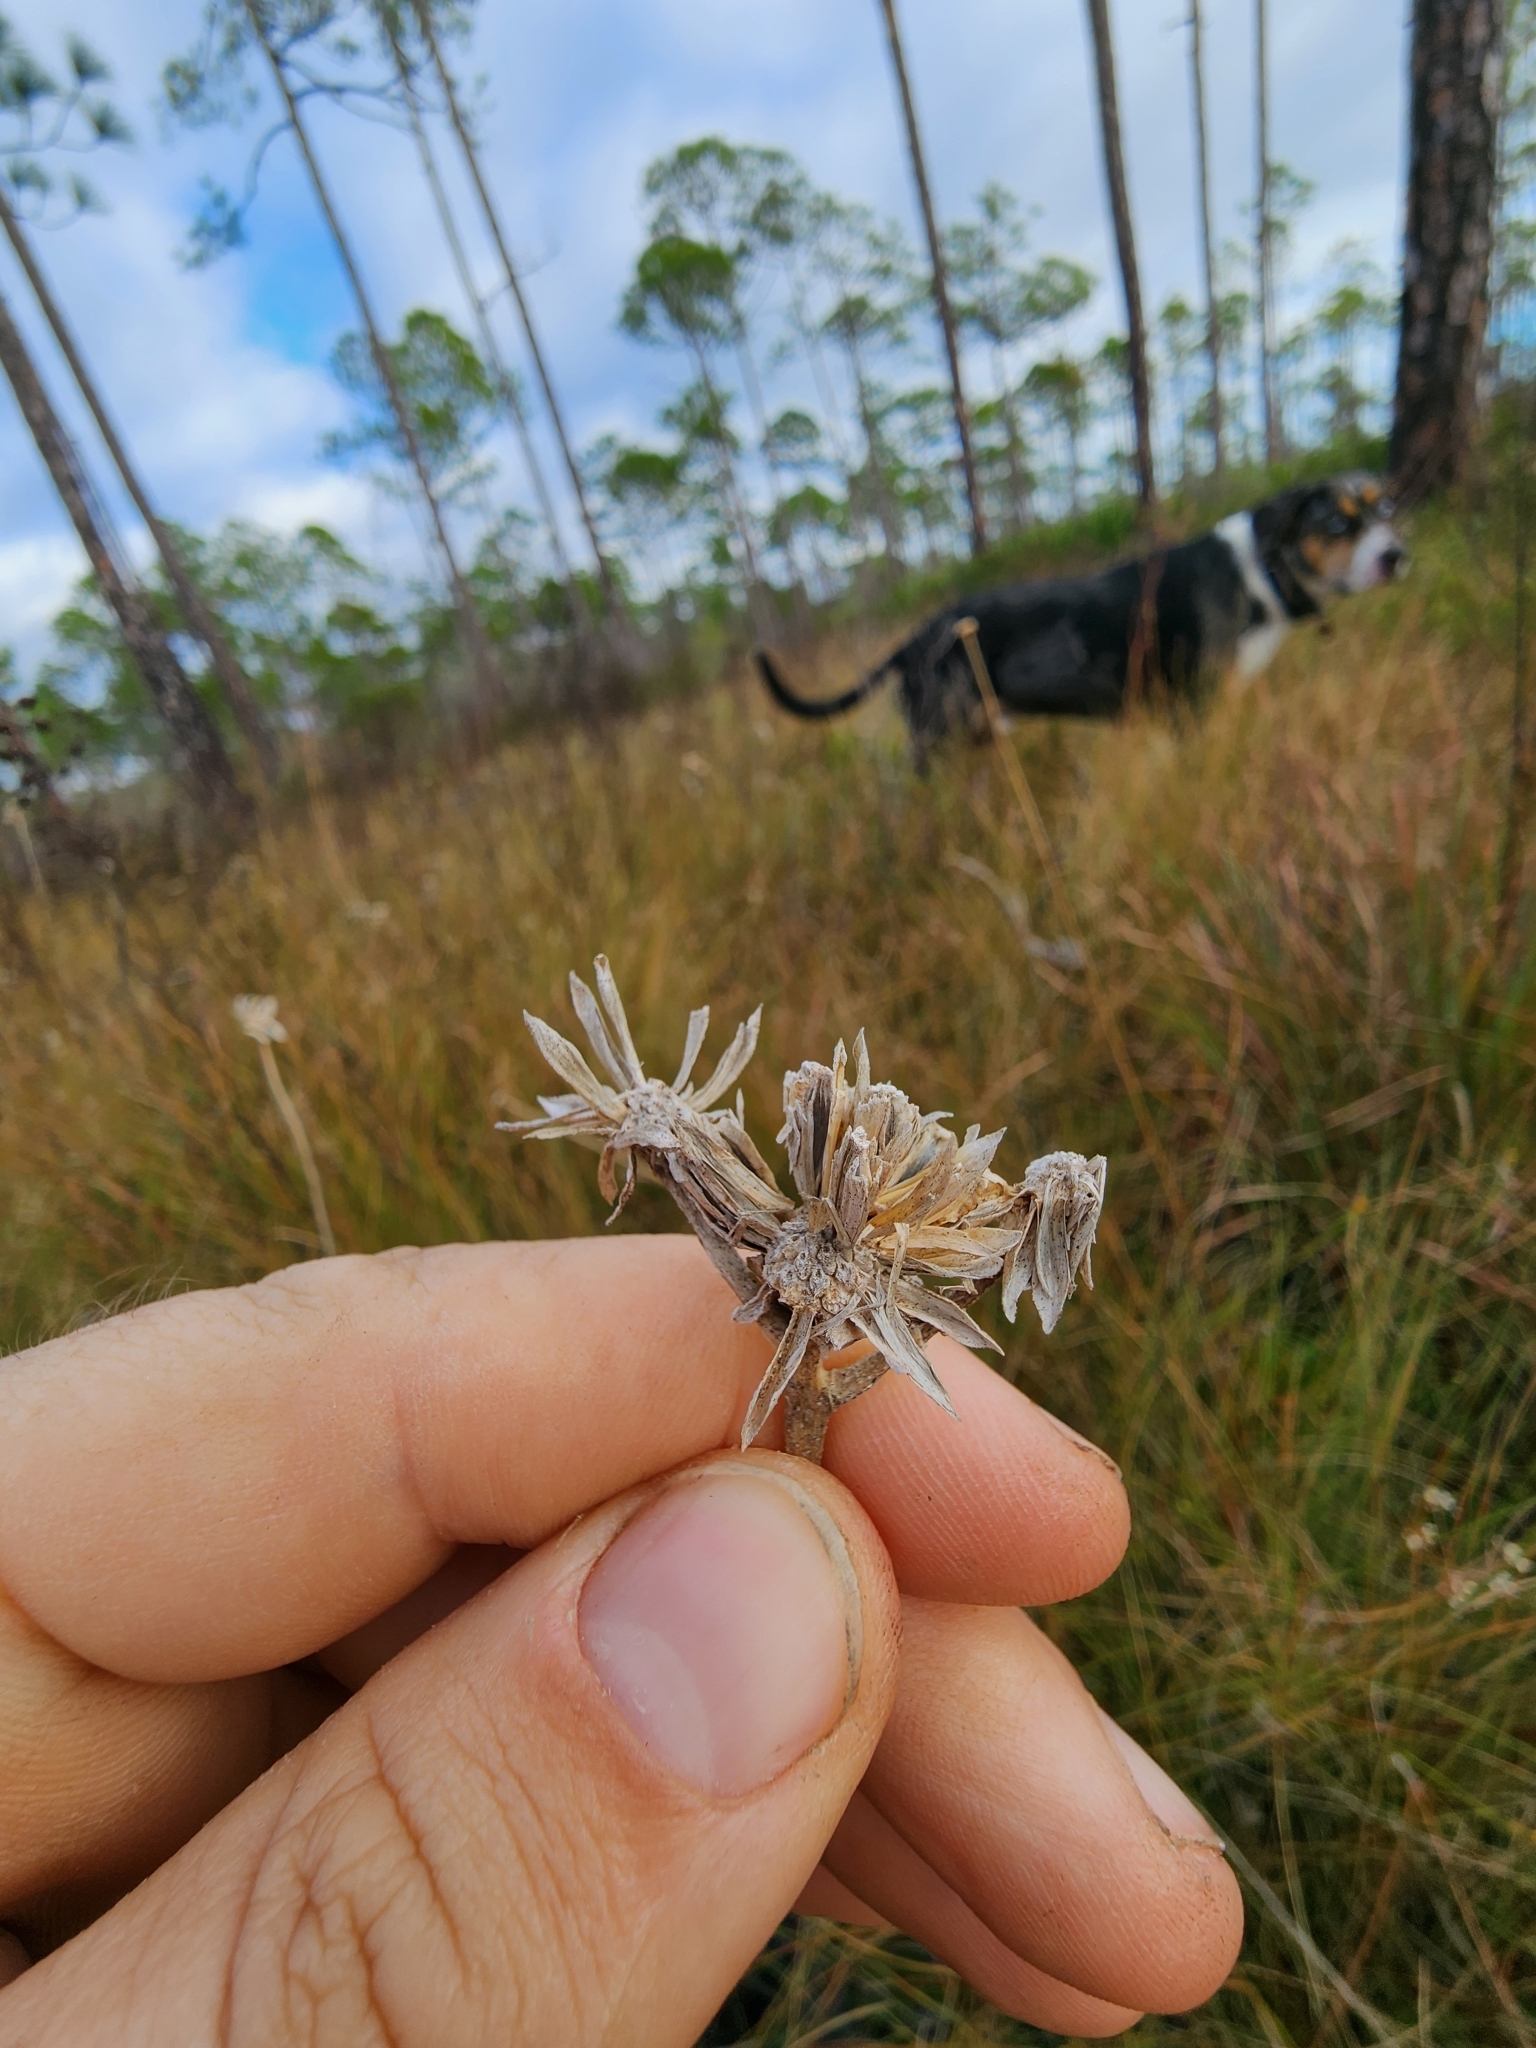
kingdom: Plantae
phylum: Tracheophyta
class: Magnoliopsida
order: Asterales
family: Asteraceae
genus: Verbesina
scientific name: Verbesina chapmanii
